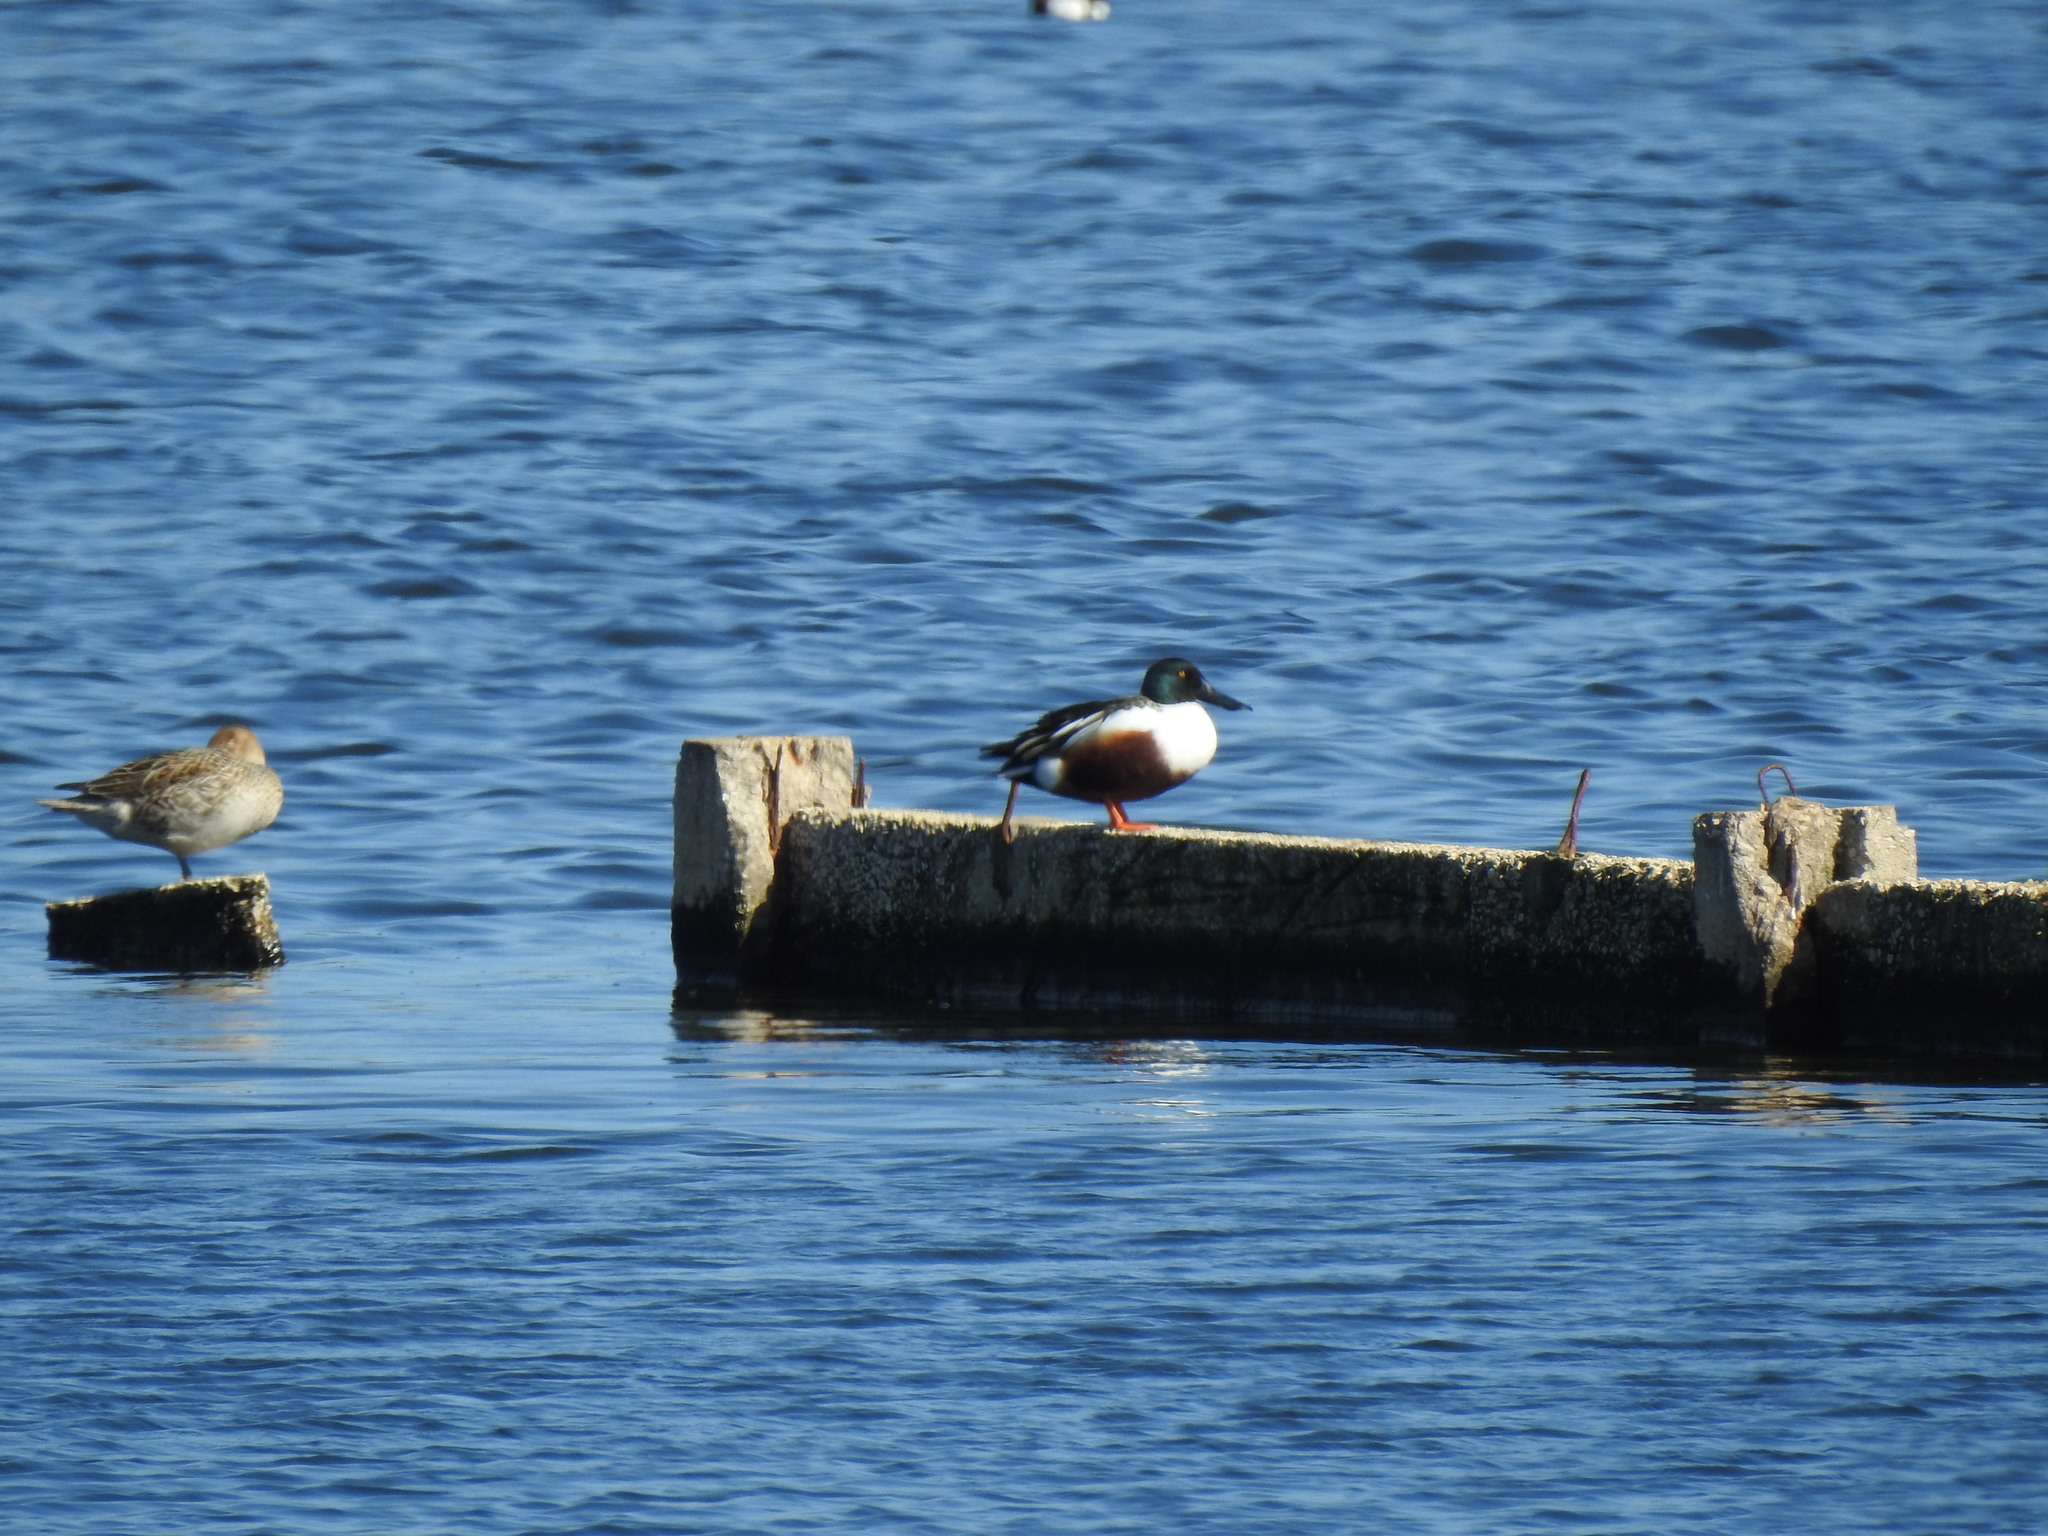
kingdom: Animalia
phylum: Chordata
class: Aves
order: Anseriformes
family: Anatidae
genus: Spatula
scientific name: Spatula clypeata
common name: Northern shoveler
